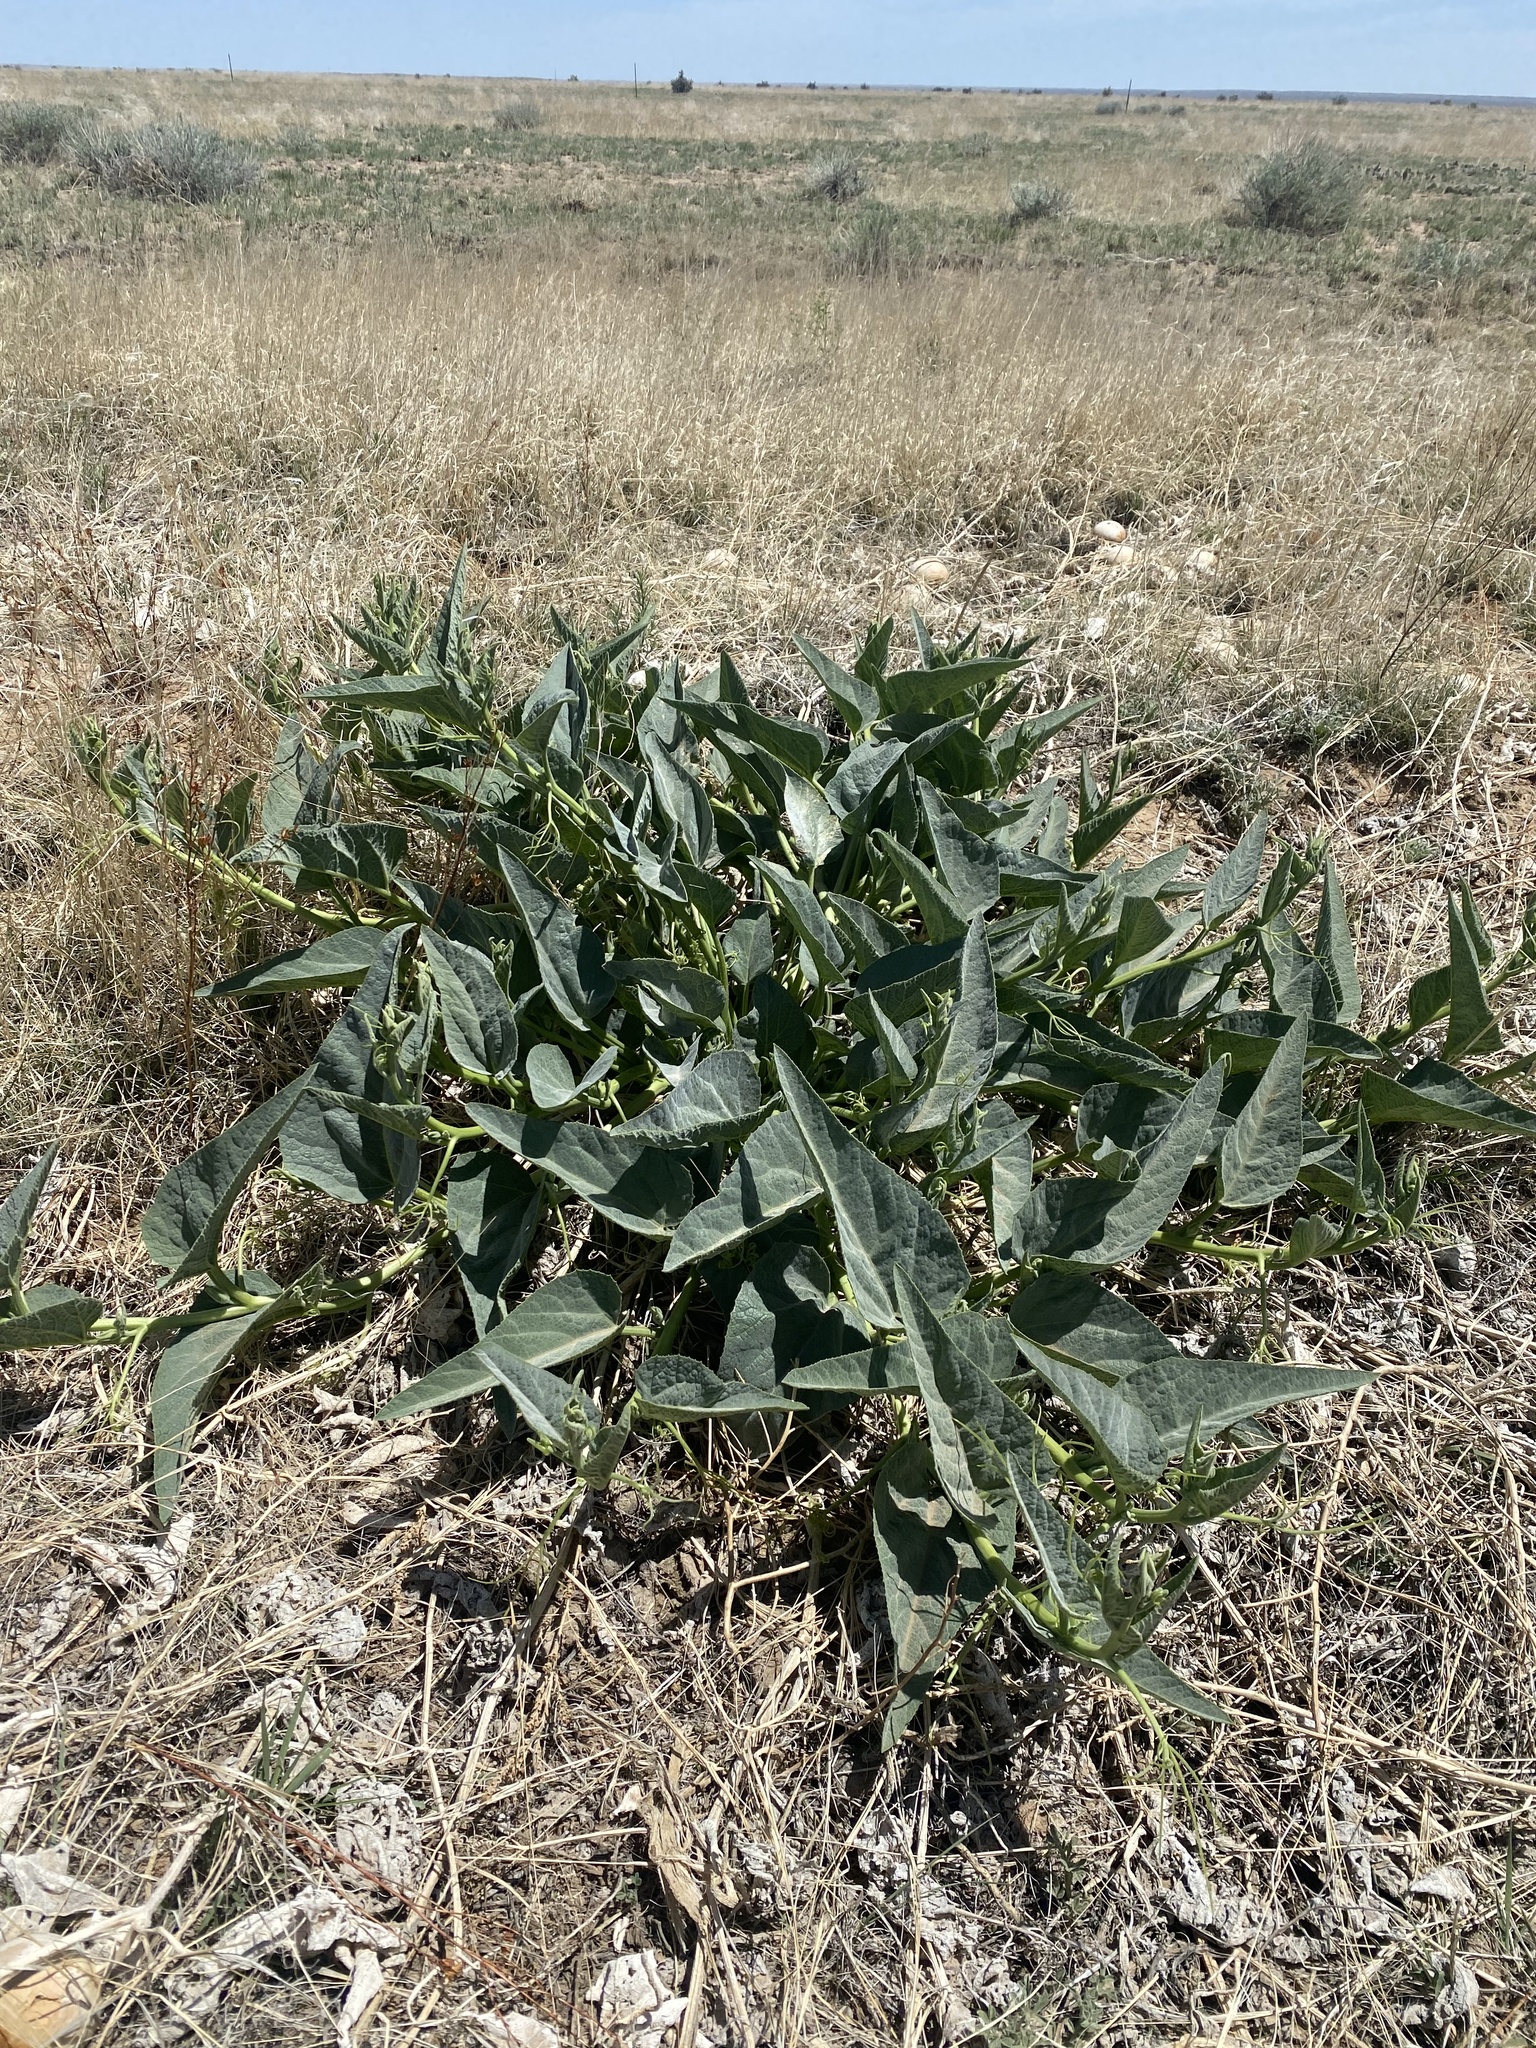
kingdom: Plantae
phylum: Tracheophyta
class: Magnoliopsida
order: Cucurbitales
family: Cucurbitaceae
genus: Cucurbita
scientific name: Cucurbita foetidissima
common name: Buffalo gourd
